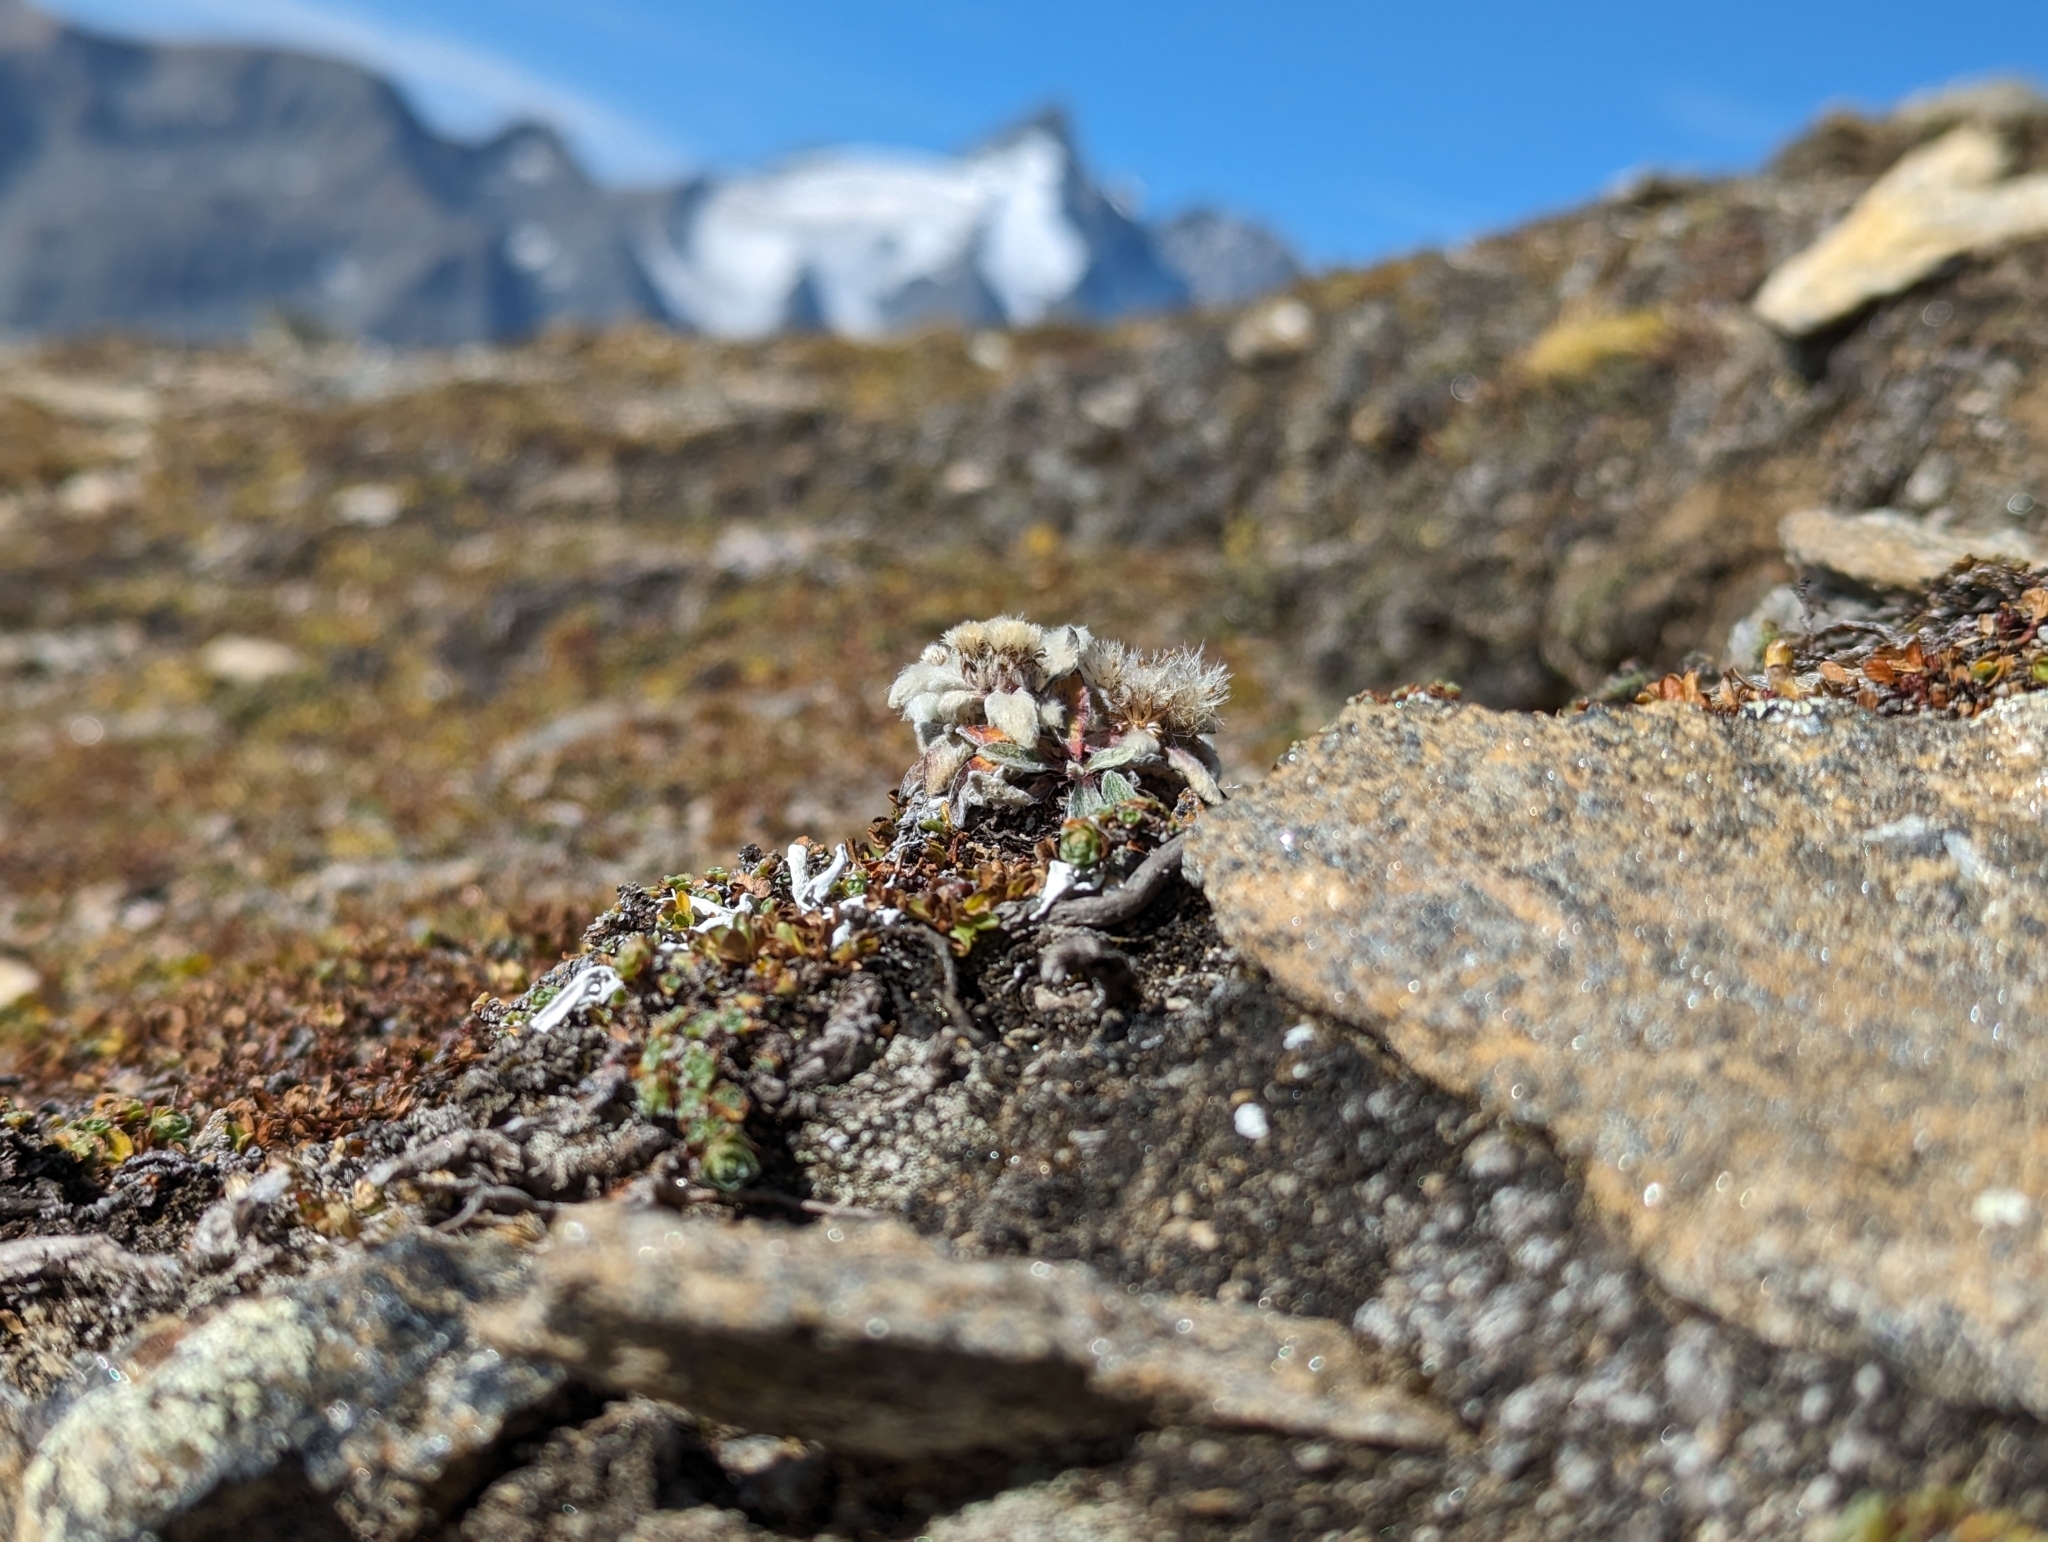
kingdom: Plantae
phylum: Tracheophyta
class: Magnoliopsida
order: Asterales
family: Asteraceae
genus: Leontopodium
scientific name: Leontopodium nivale
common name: Edelweiss
